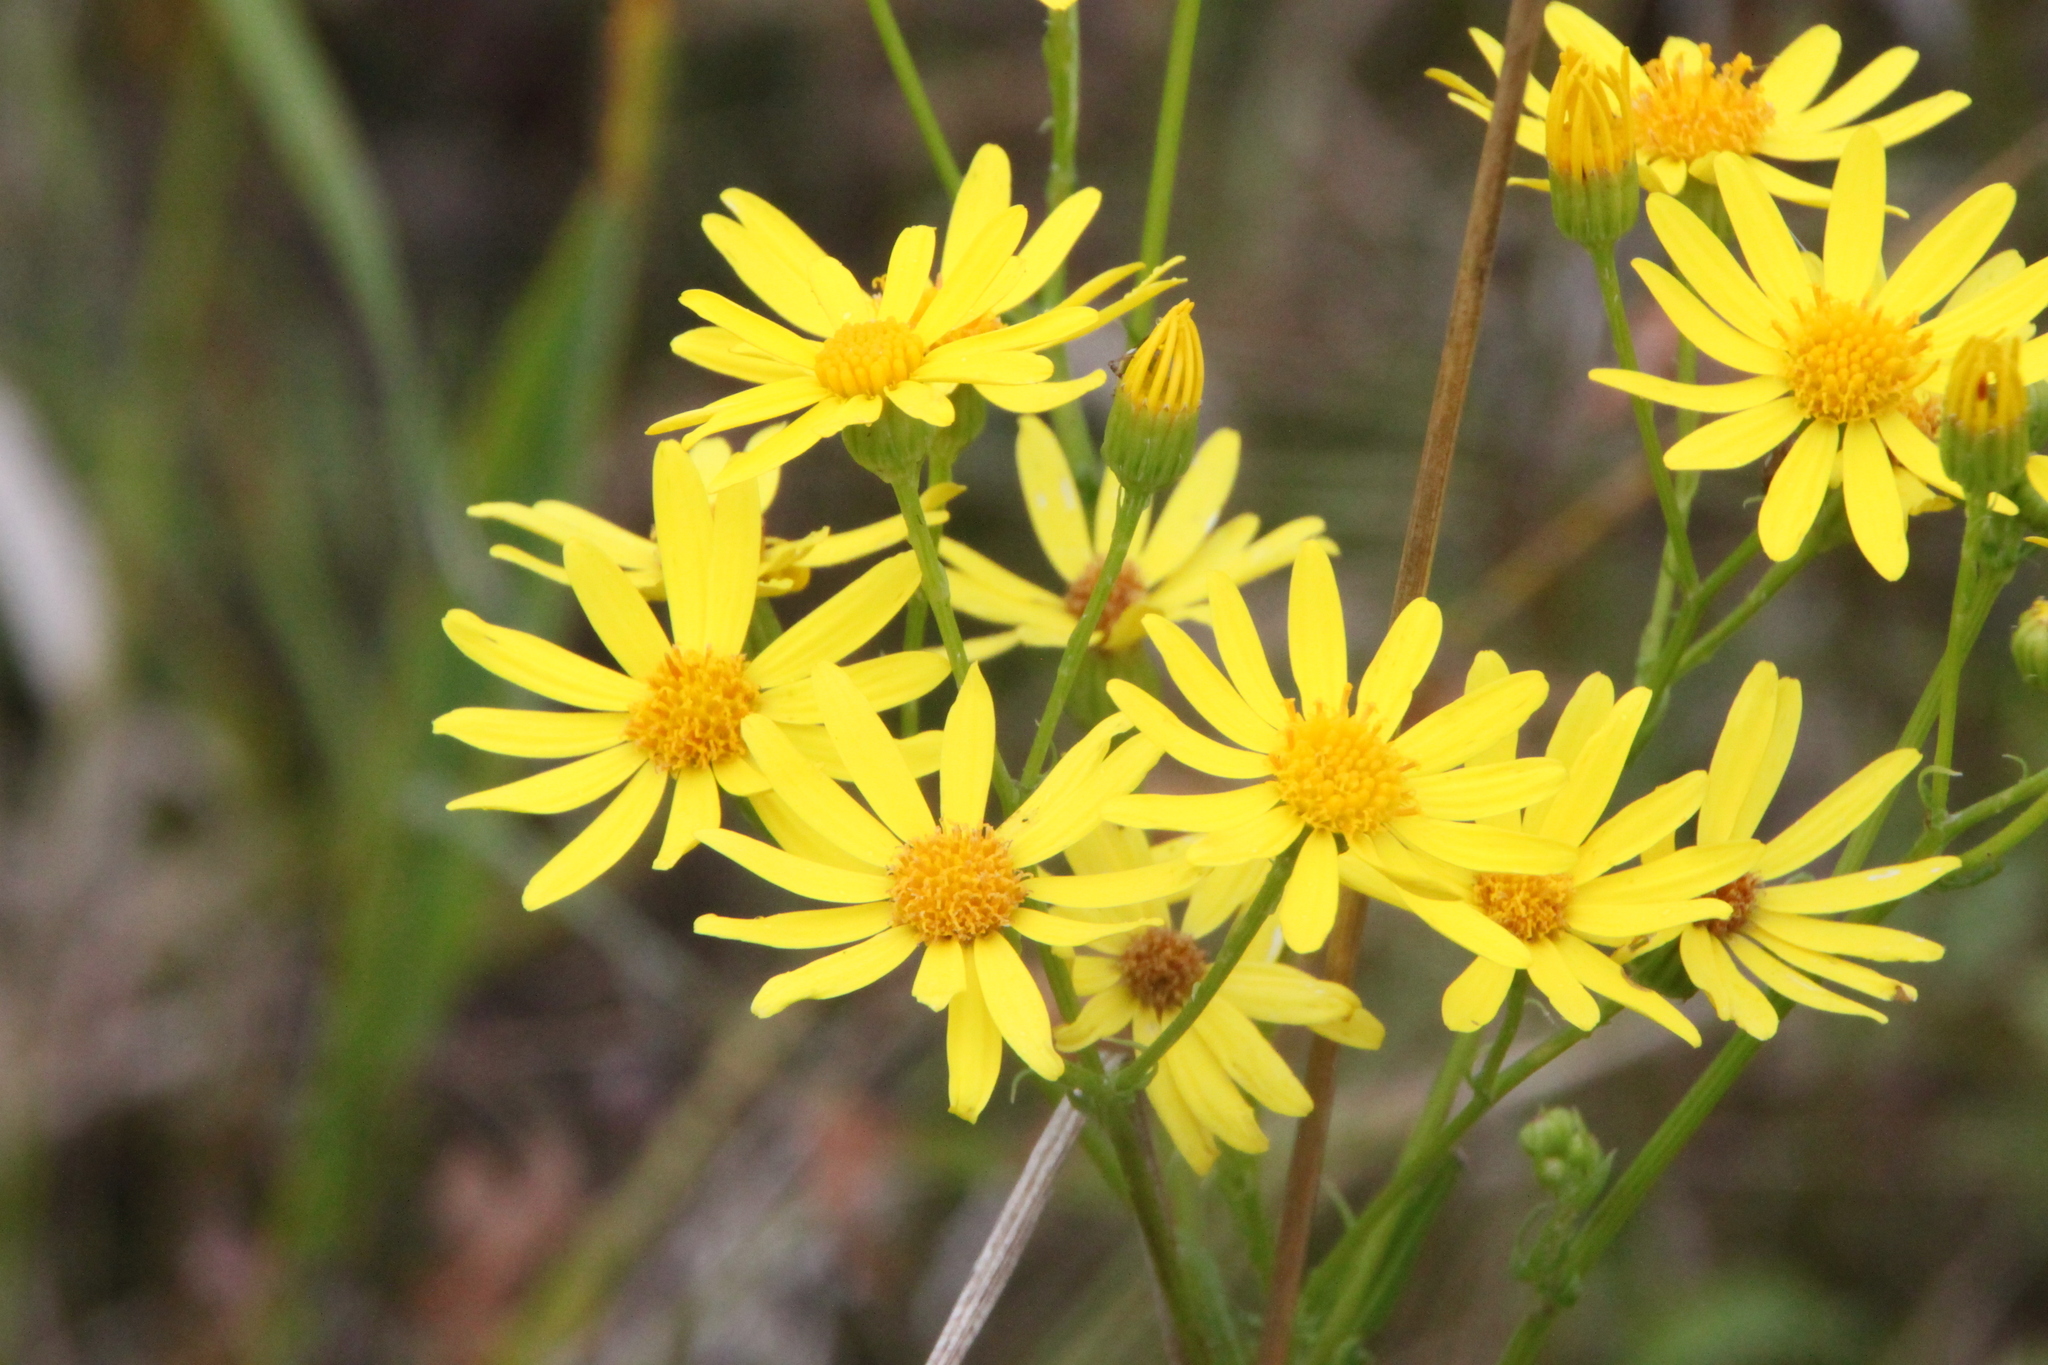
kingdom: Plantae
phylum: Tracheophyta
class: Magnoliopsida
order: Asterales
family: Asteraceae
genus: Jacobaea
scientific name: Jacobaea vulgaris
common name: Stinking willie
